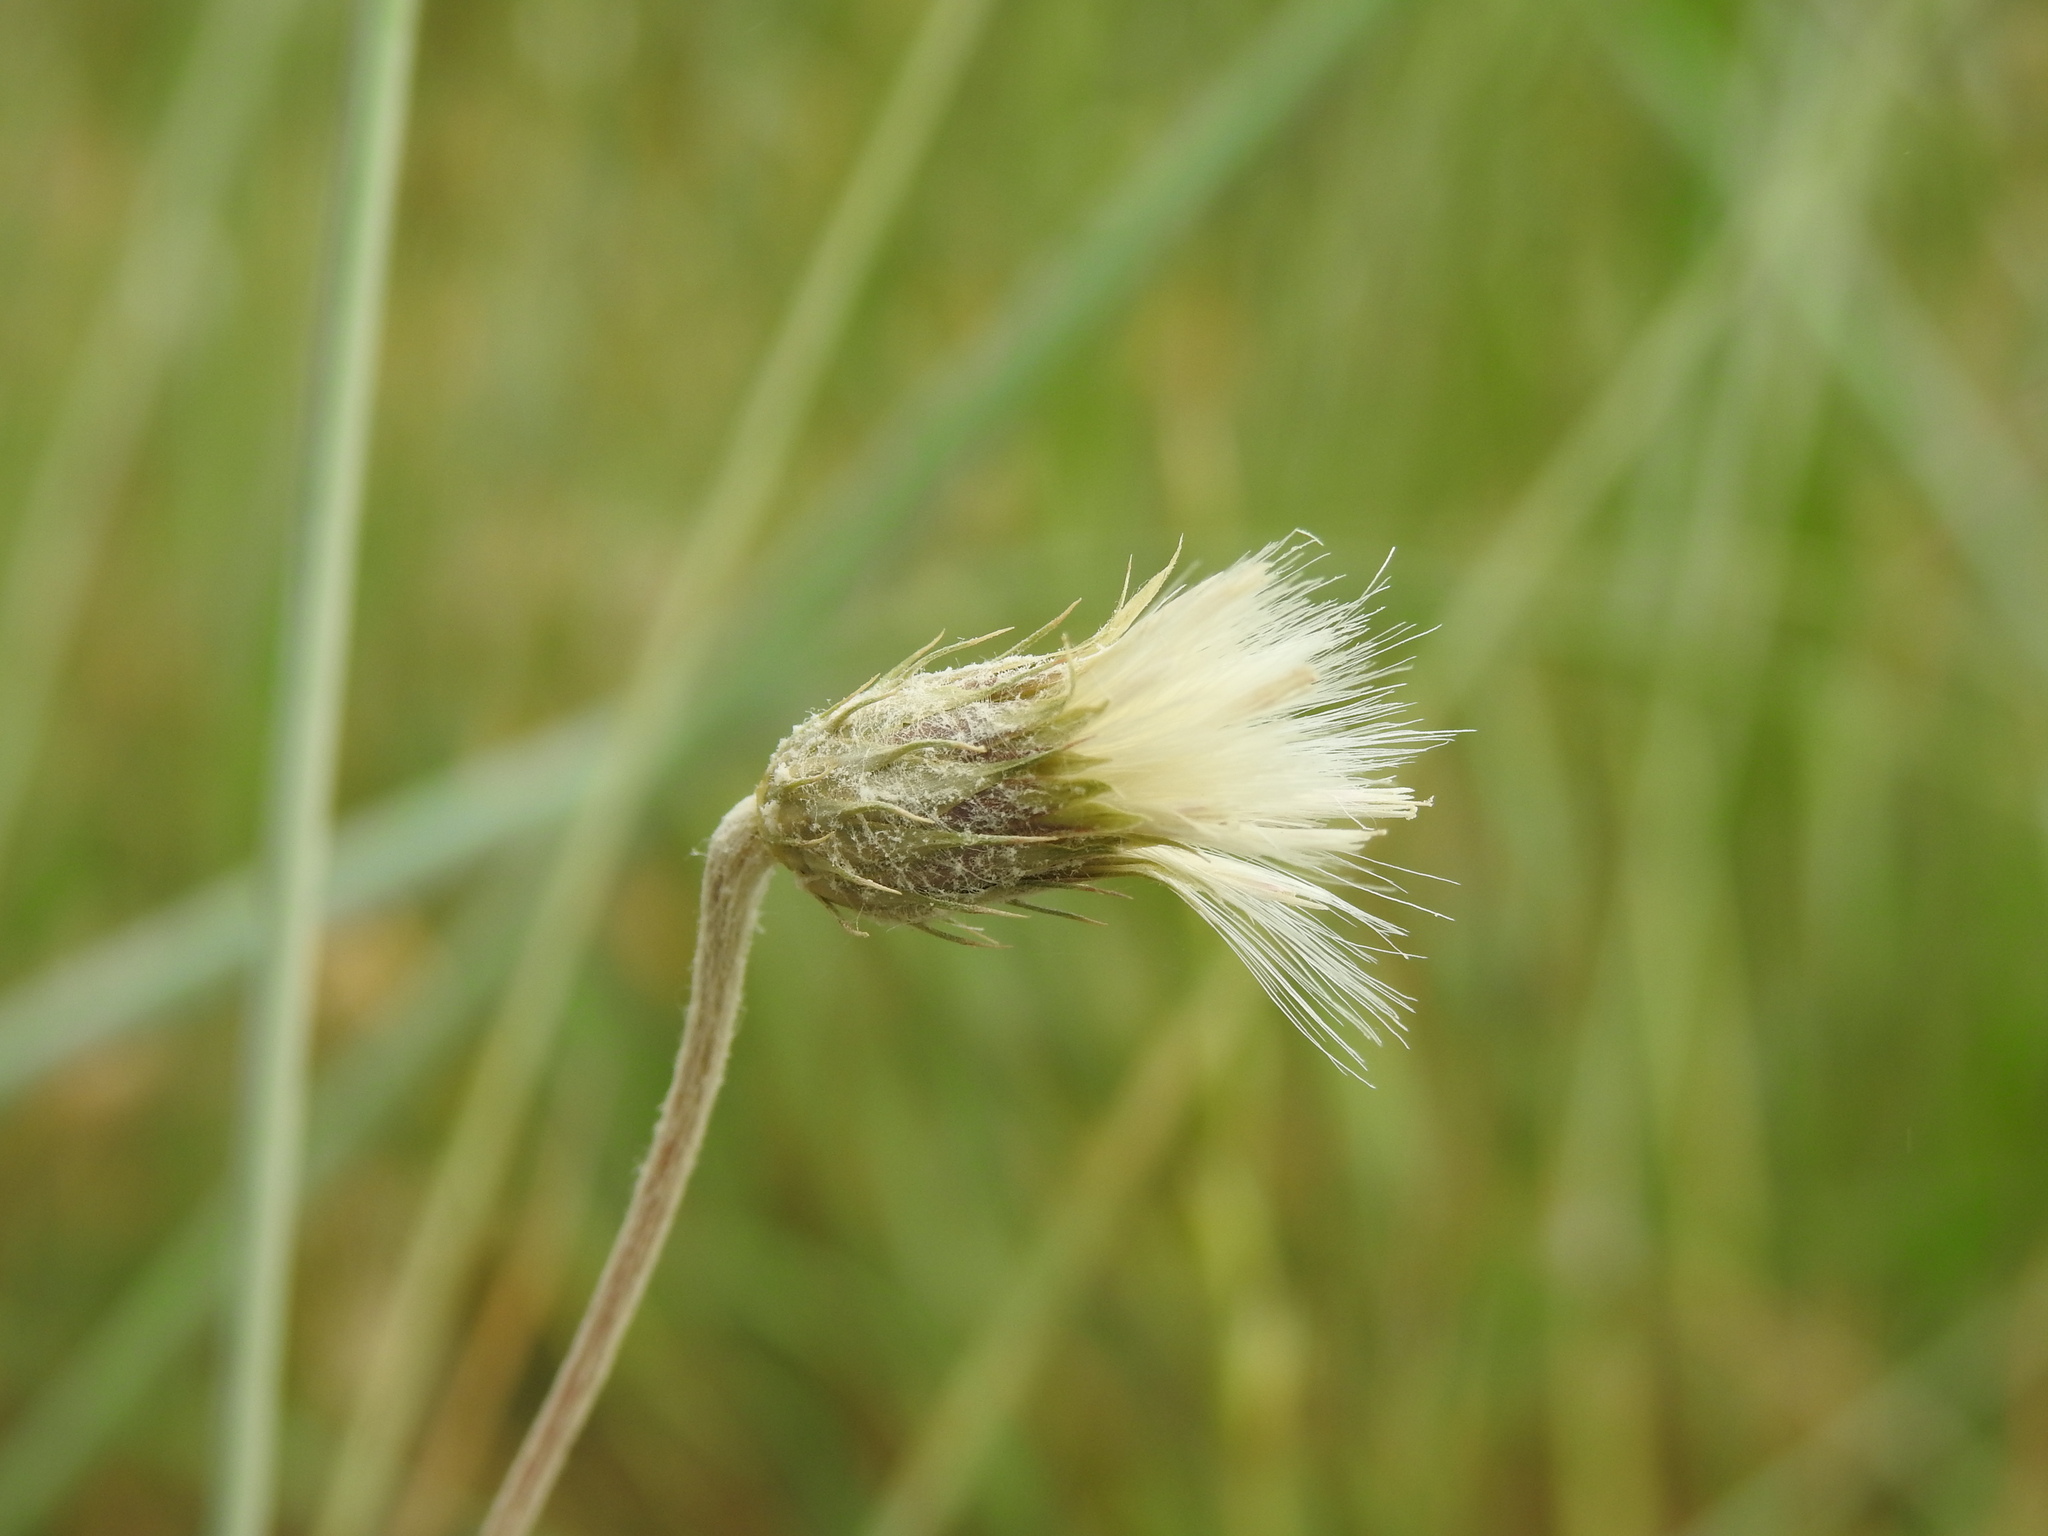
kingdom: Plantae
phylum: Tracheophyta
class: Magnoliopsida
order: Asterales
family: Asteraceae
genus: Tyrimnus
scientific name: Tyrimnus leucographus
